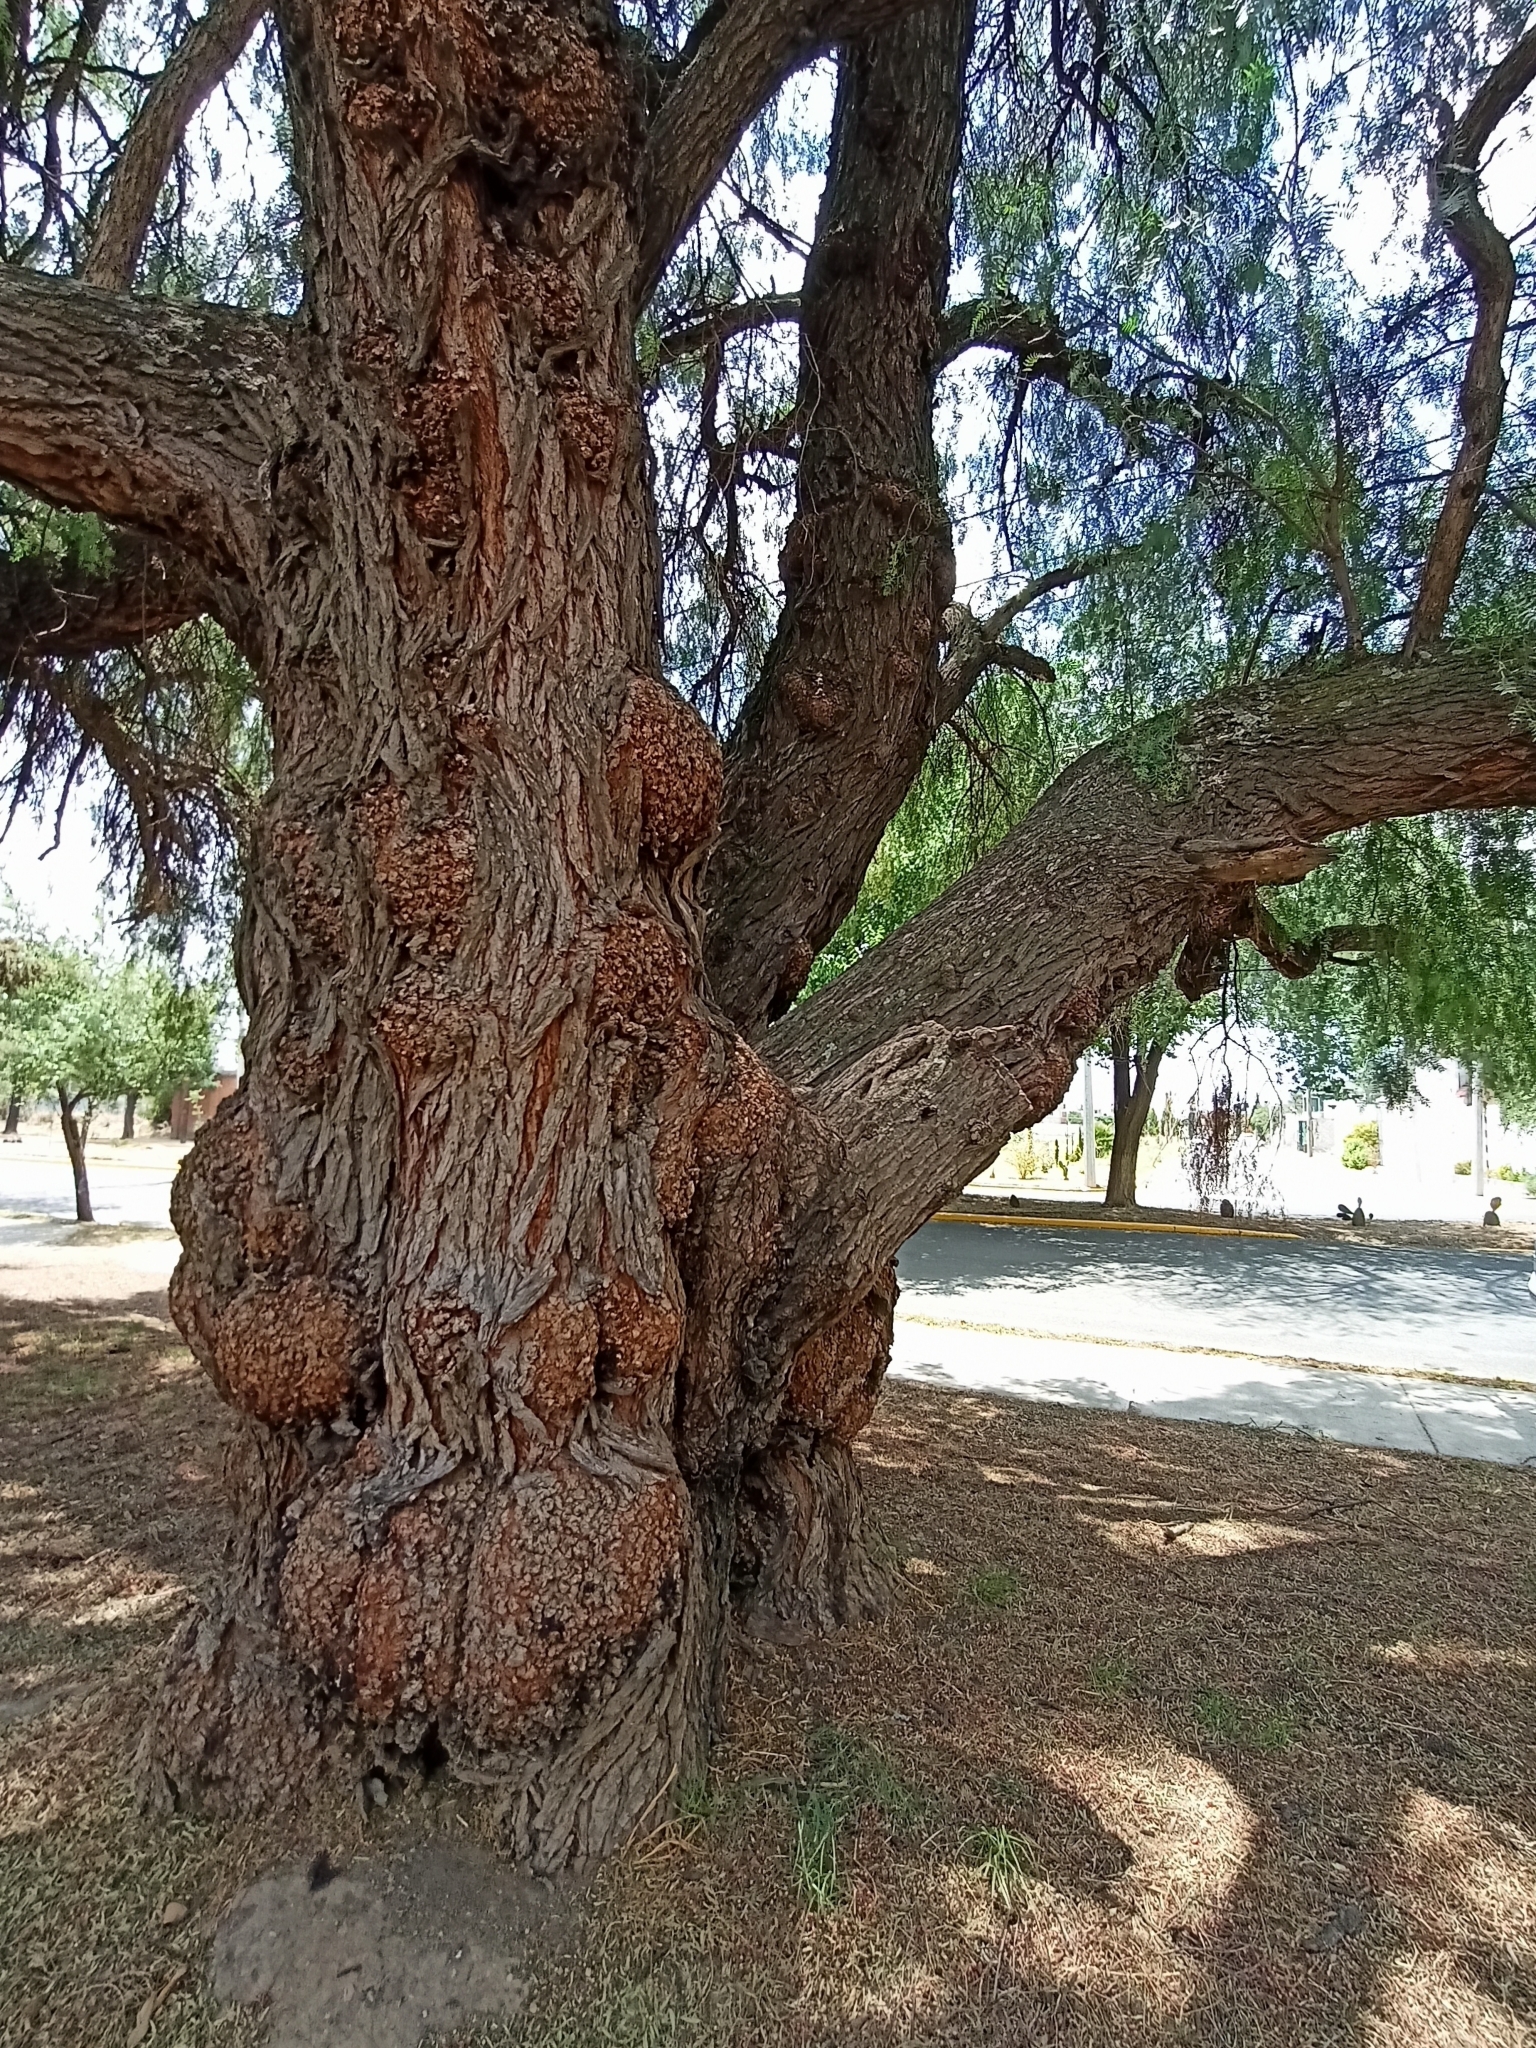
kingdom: Plantae
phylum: Tracheophyta
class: Magnoliopsida
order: Sapindales
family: Anacardiaceae
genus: Schinus
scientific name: Schinus molle
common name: Peruvian peppertree
